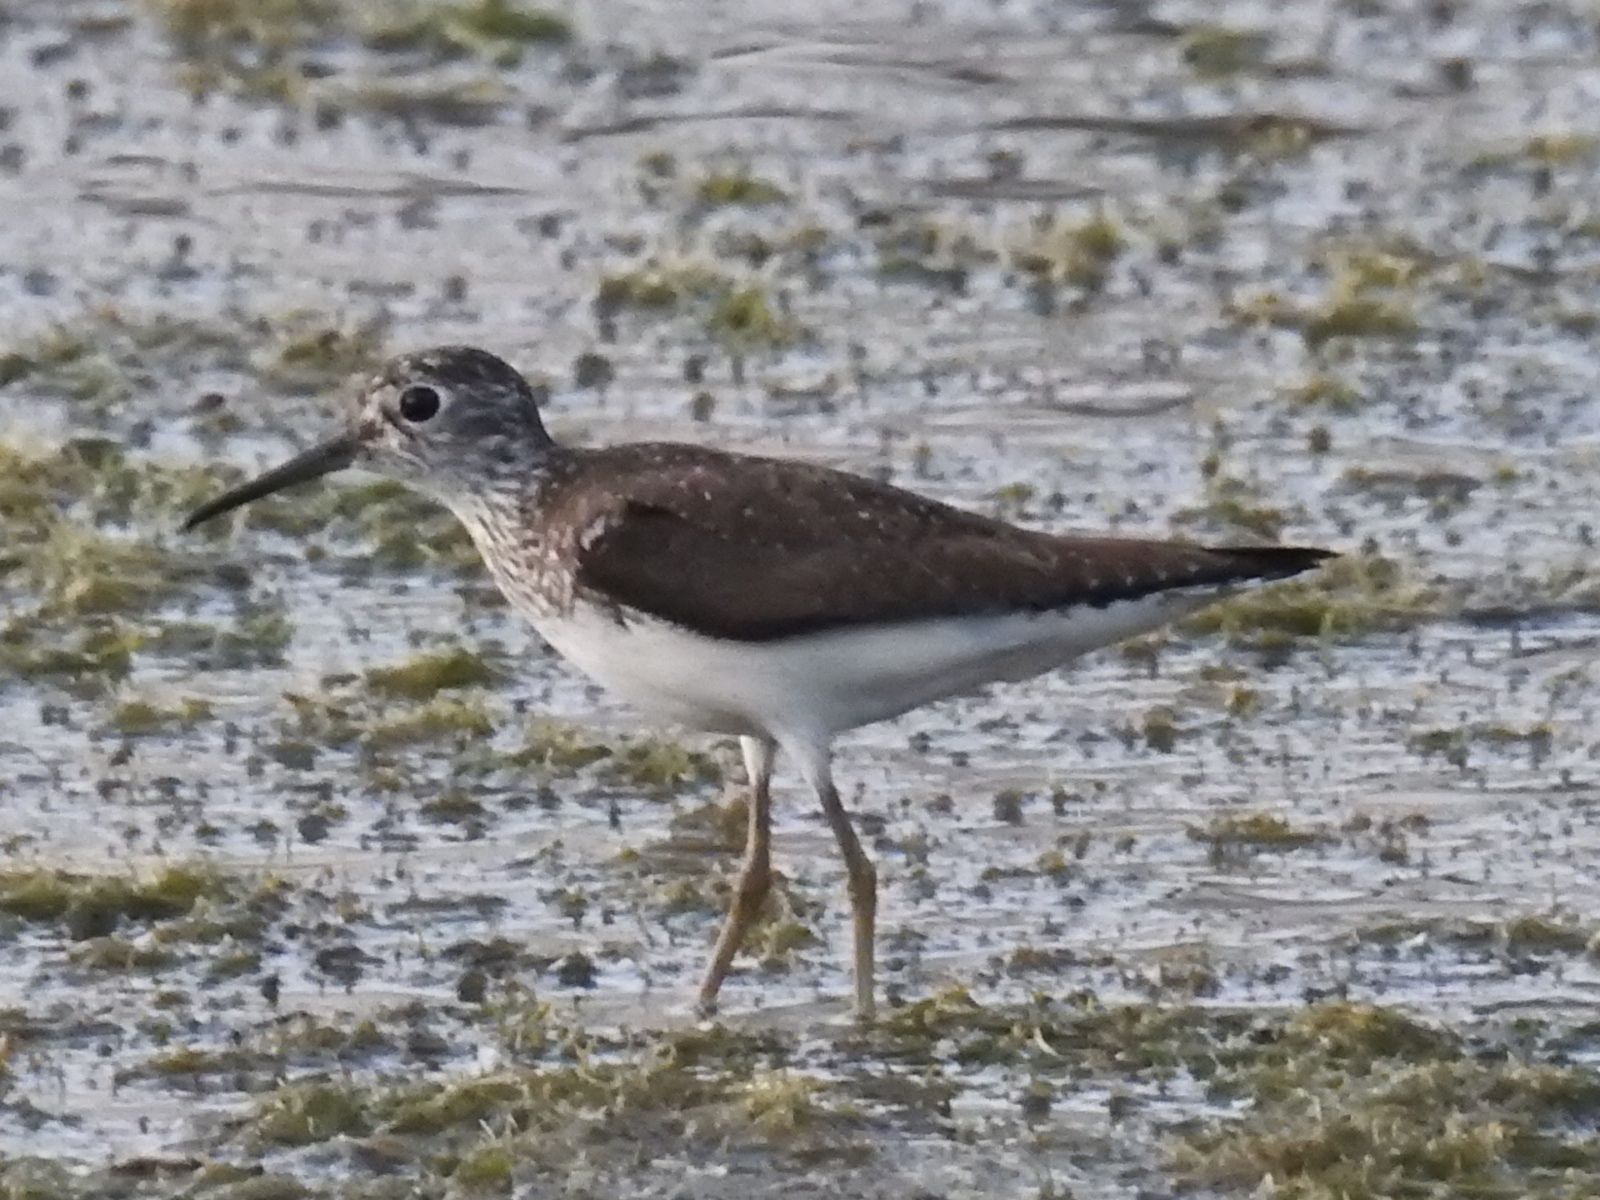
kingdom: Animalia
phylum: Chordata
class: Aves
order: Charadriiformes
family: Scolopacidae
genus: Tringa
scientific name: Tringa solitaria
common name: Solitary sandpiper
